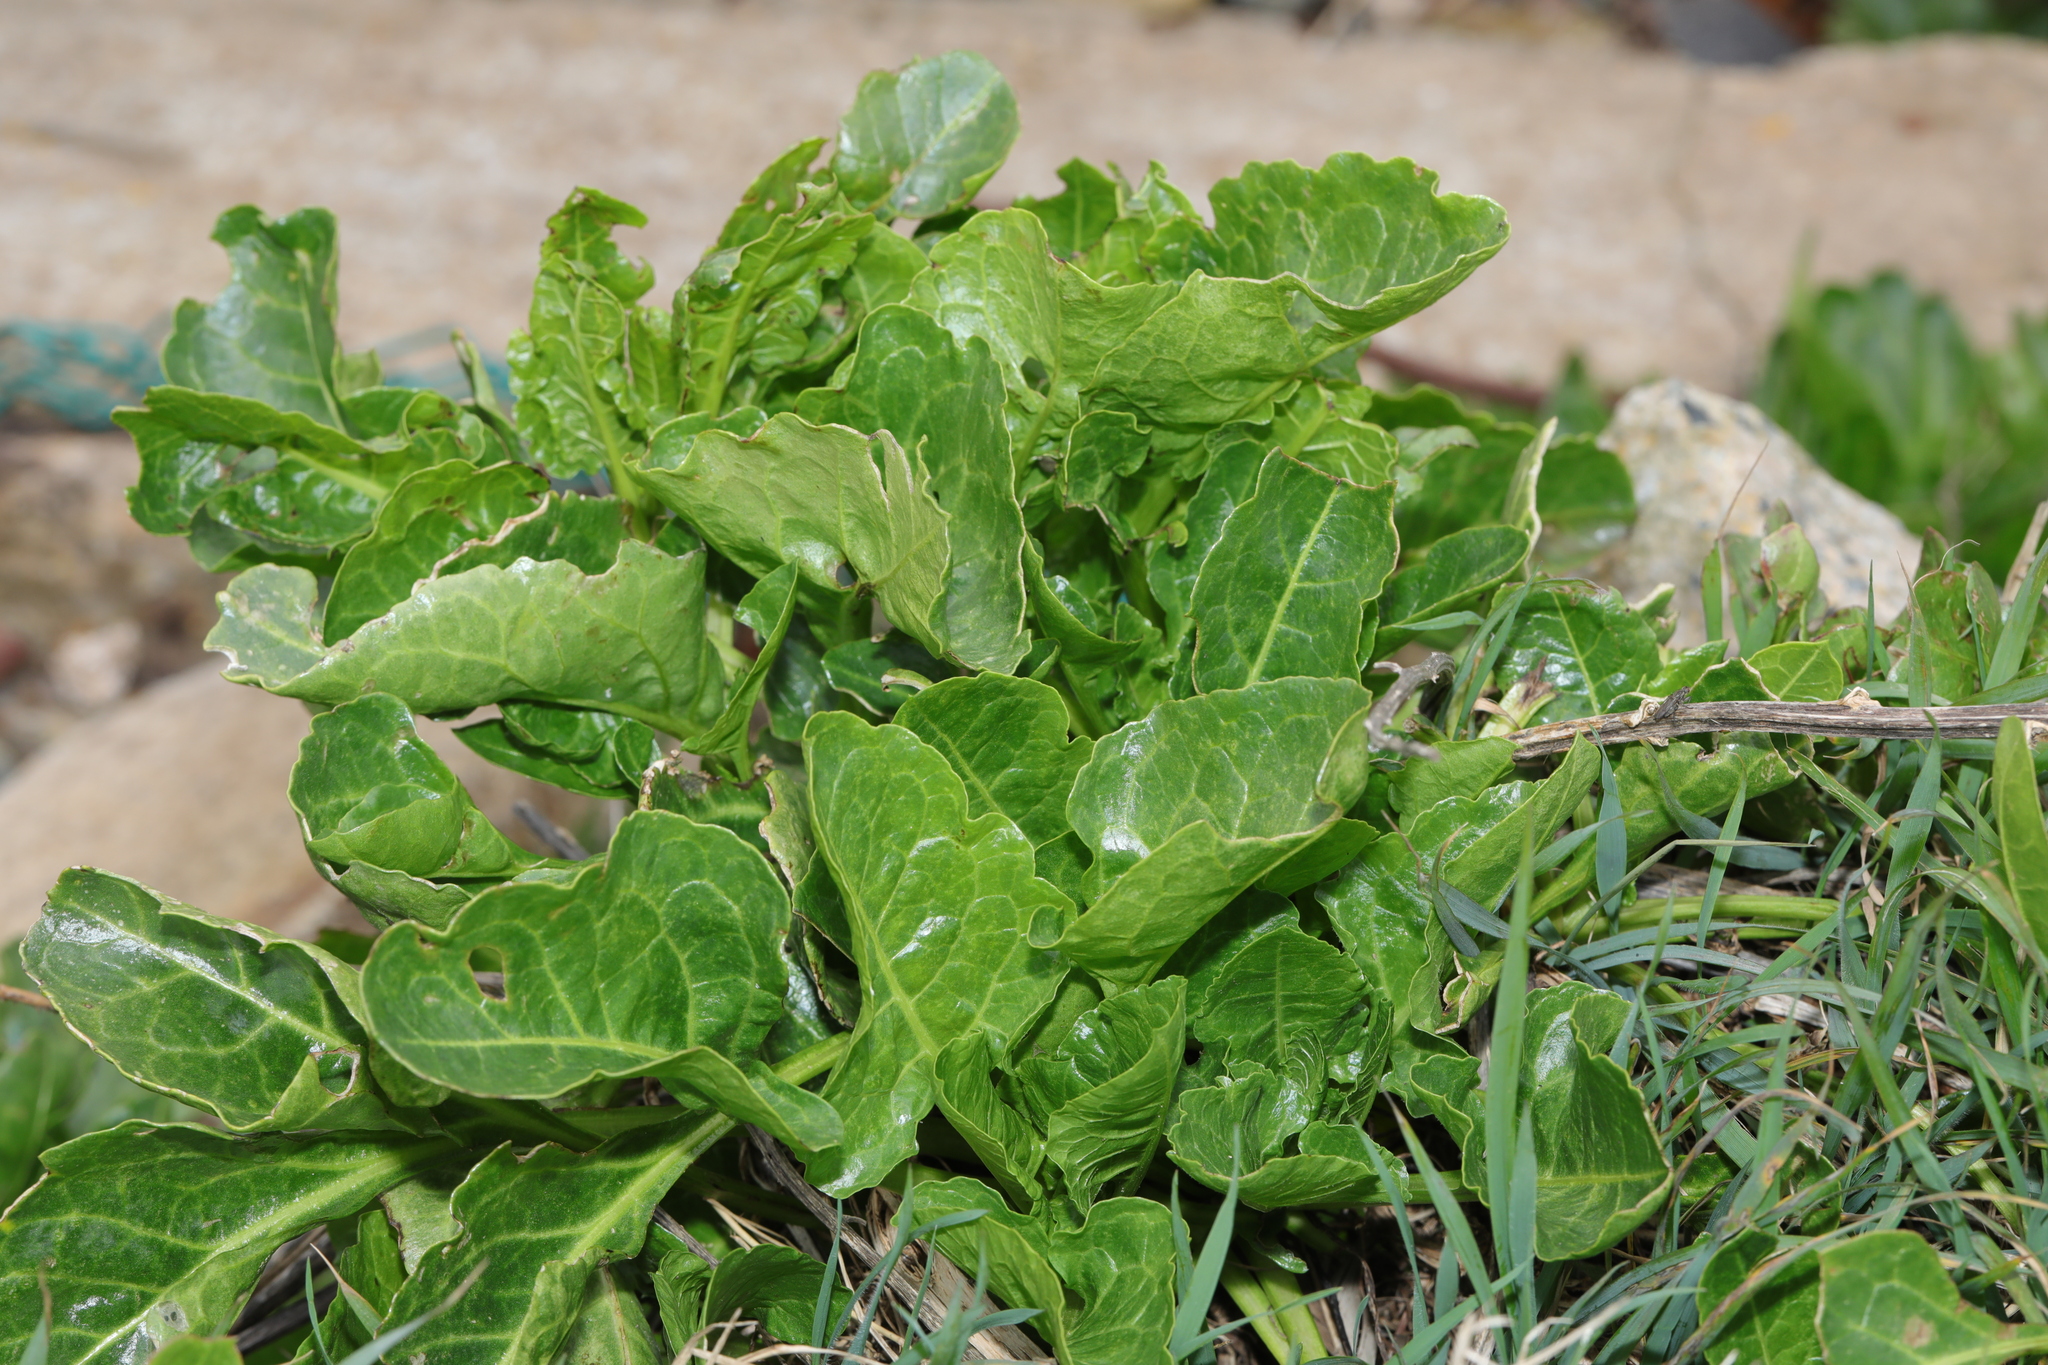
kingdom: Plantae
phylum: Tracheophyta
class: Magnoliopsida
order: Caryophyllales
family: Amaranthaceae
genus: Beta
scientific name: Beta vulgaris
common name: Beet
